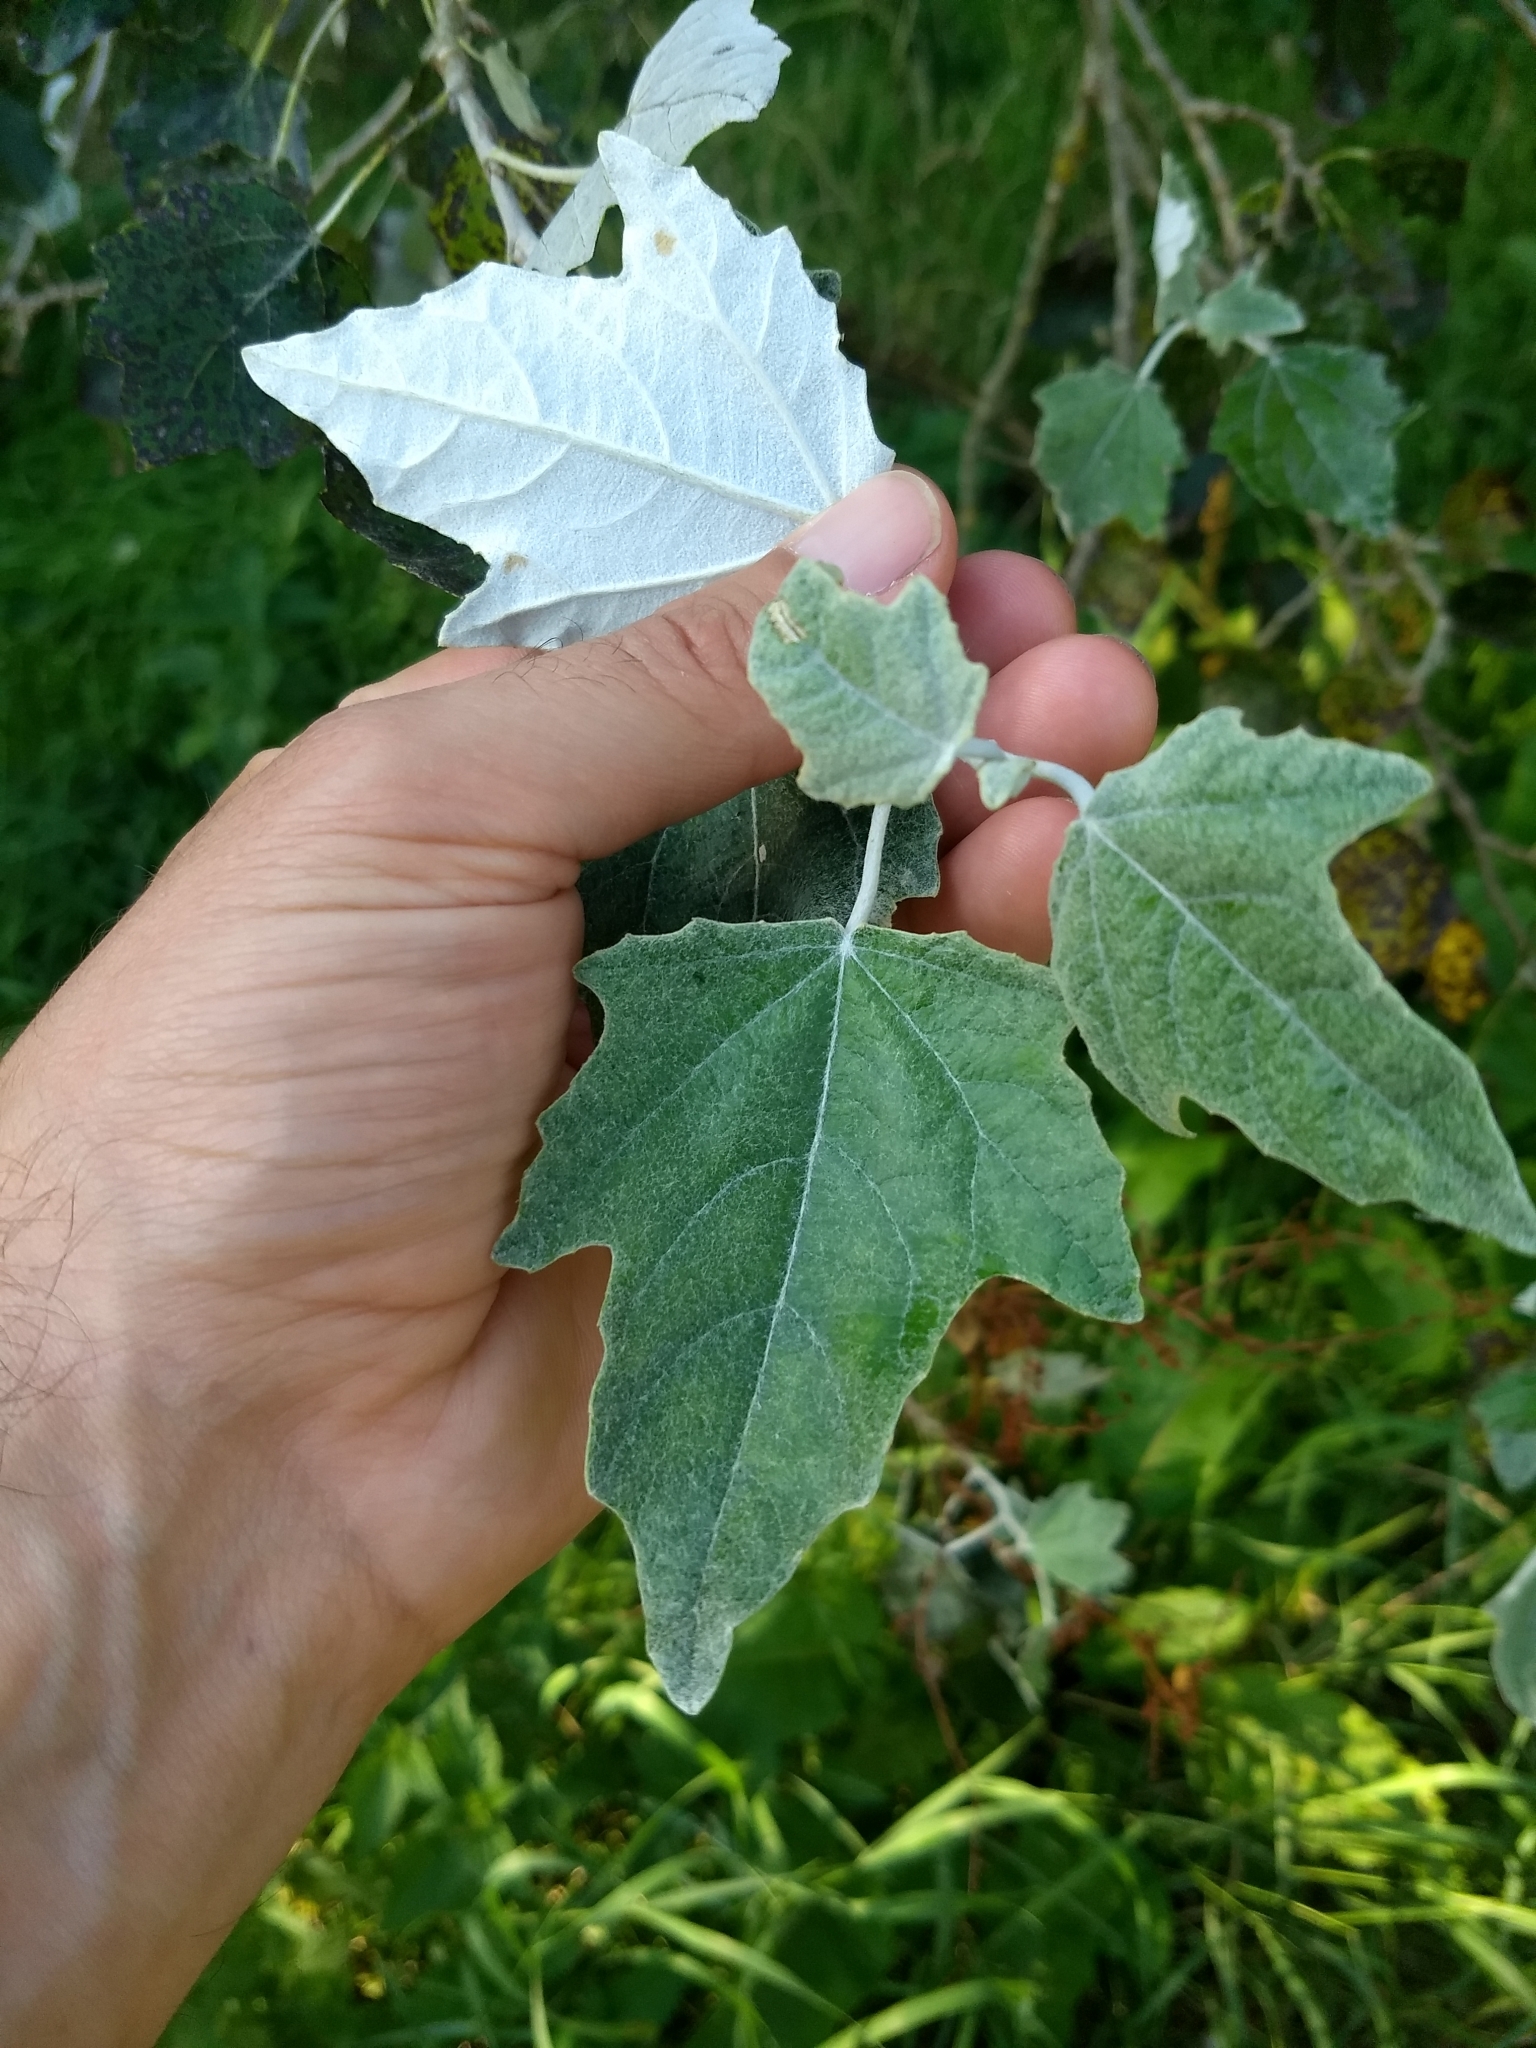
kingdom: Plantae
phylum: Tracheophyta
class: Magnoliopsida
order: Malpighiales
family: Salicaceae
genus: Populus
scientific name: Populus alba
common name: White poplar
